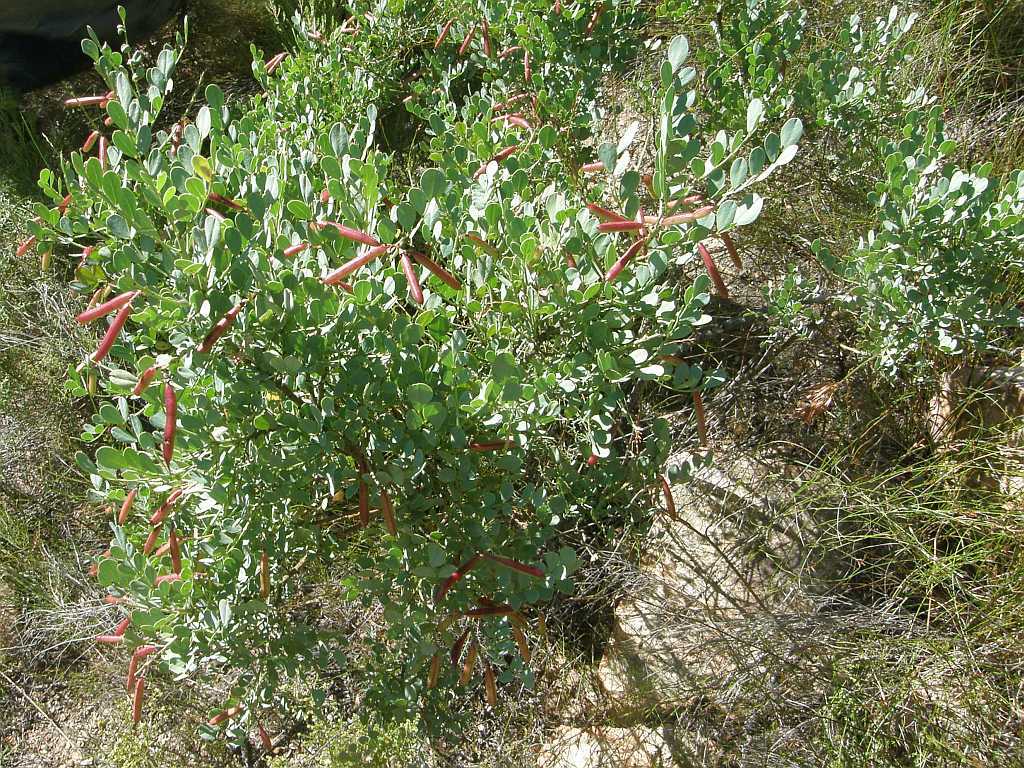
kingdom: Plantae
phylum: Tracheophyta
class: Magnoliopsida
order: Fabales
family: Fabaceae
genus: Indigofera
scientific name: Indigofera frutescens
